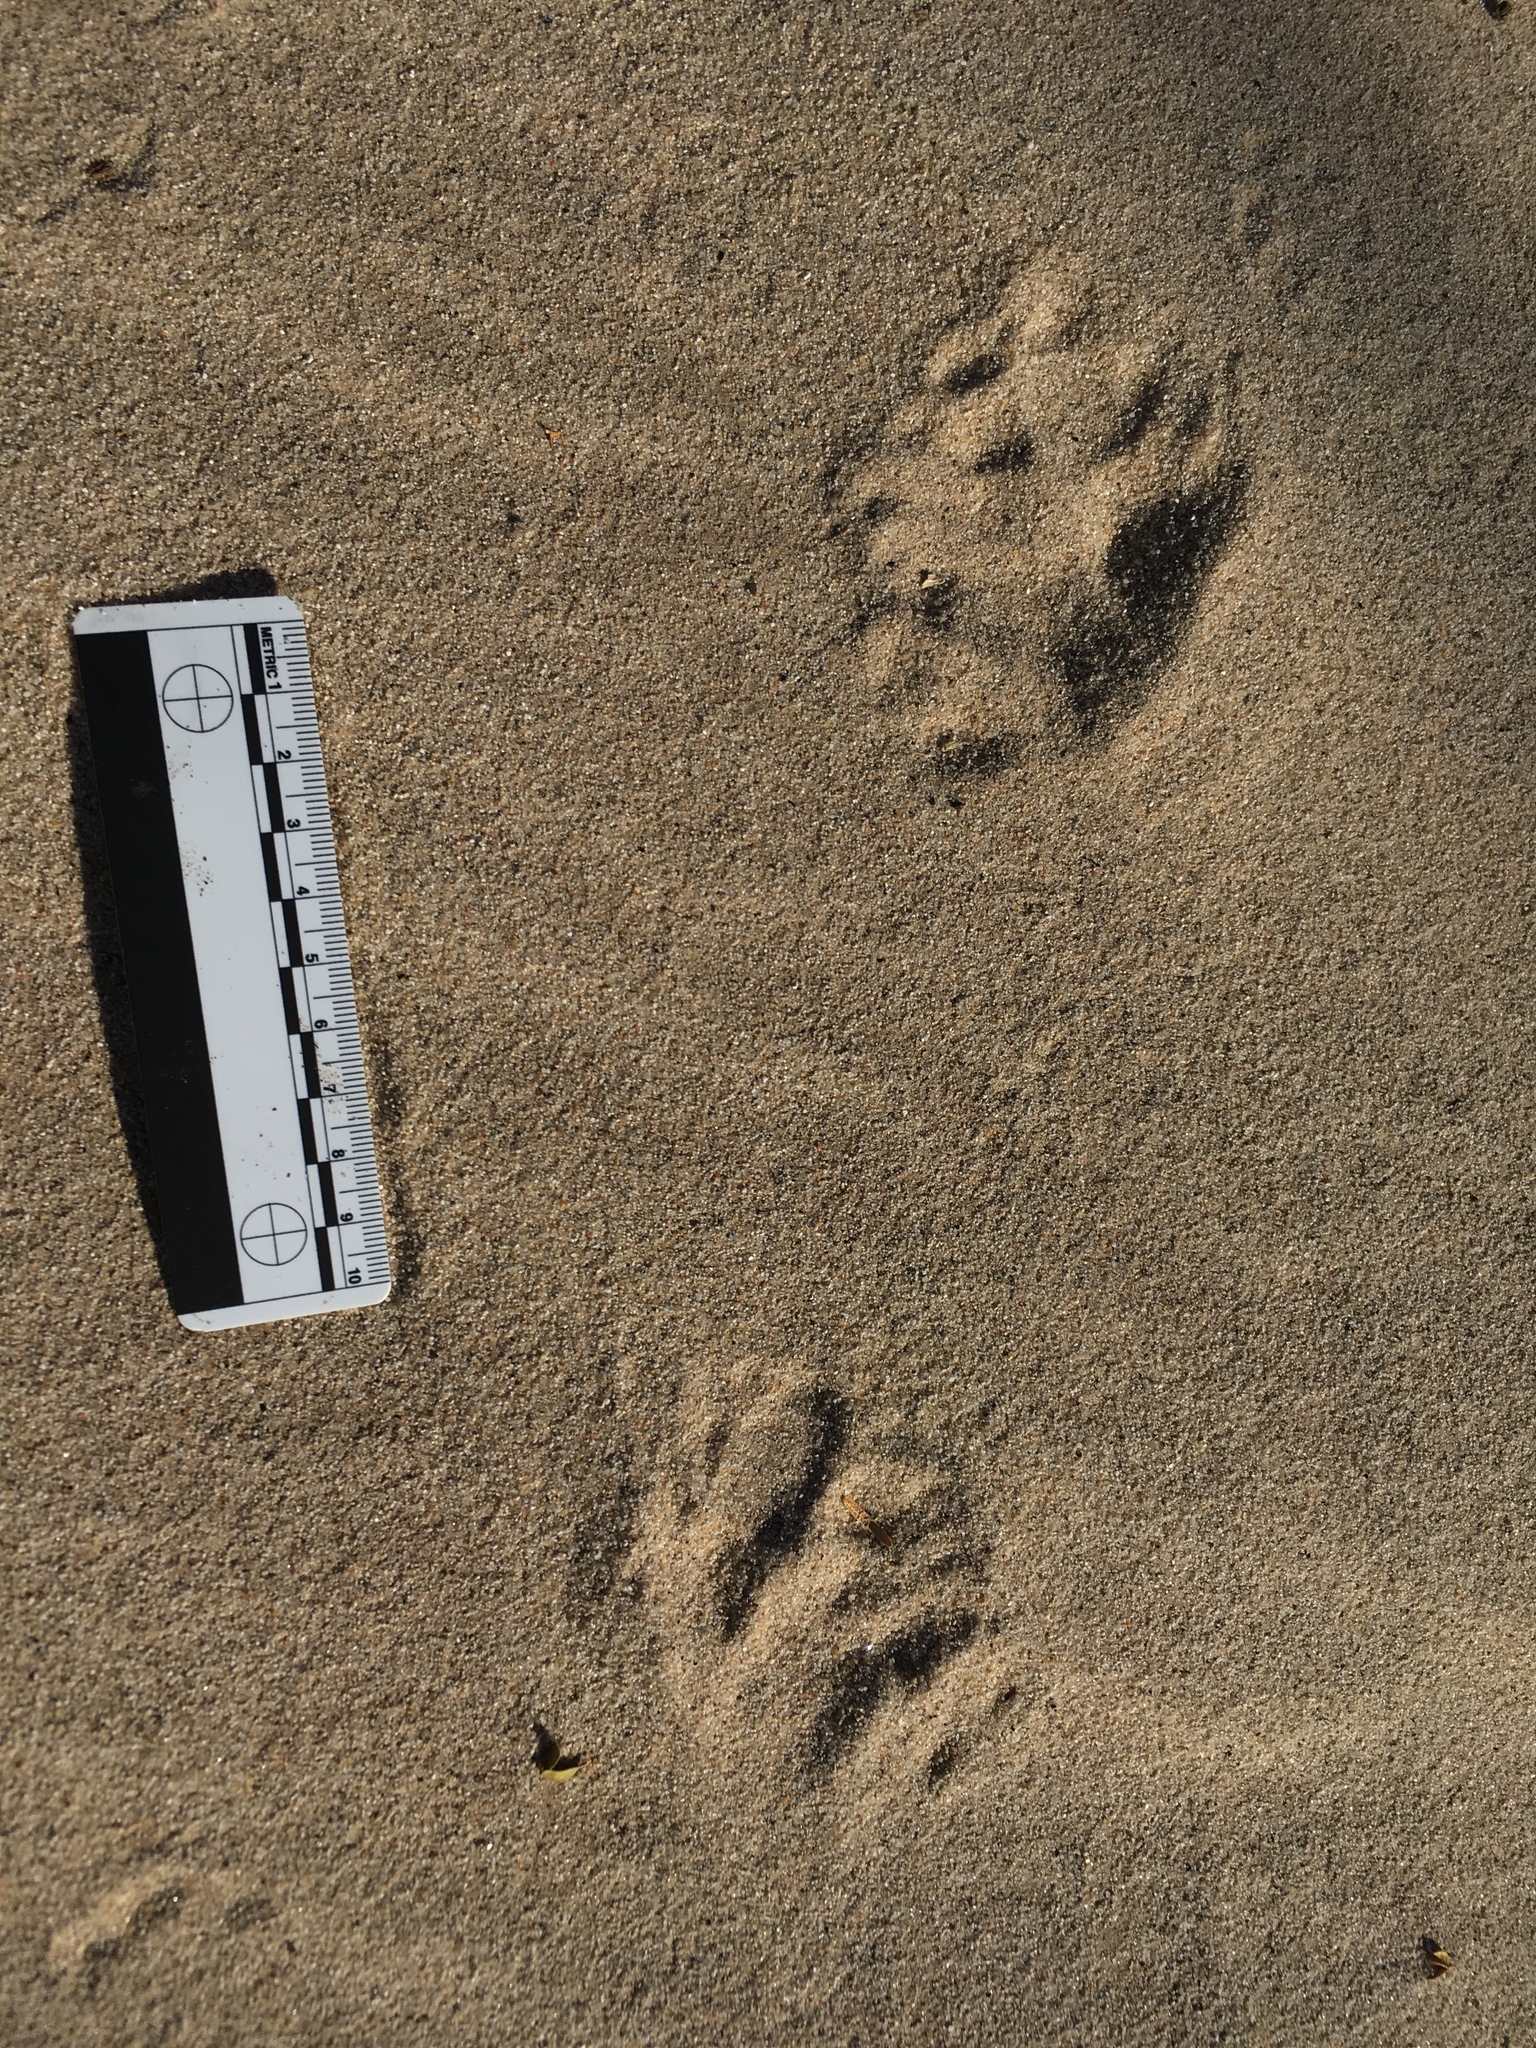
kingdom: Animalia
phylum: Chordata
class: Mammalia
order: Carnivora
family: Mustelidae
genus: Taxidea
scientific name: Taxidea taxus
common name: American badger
